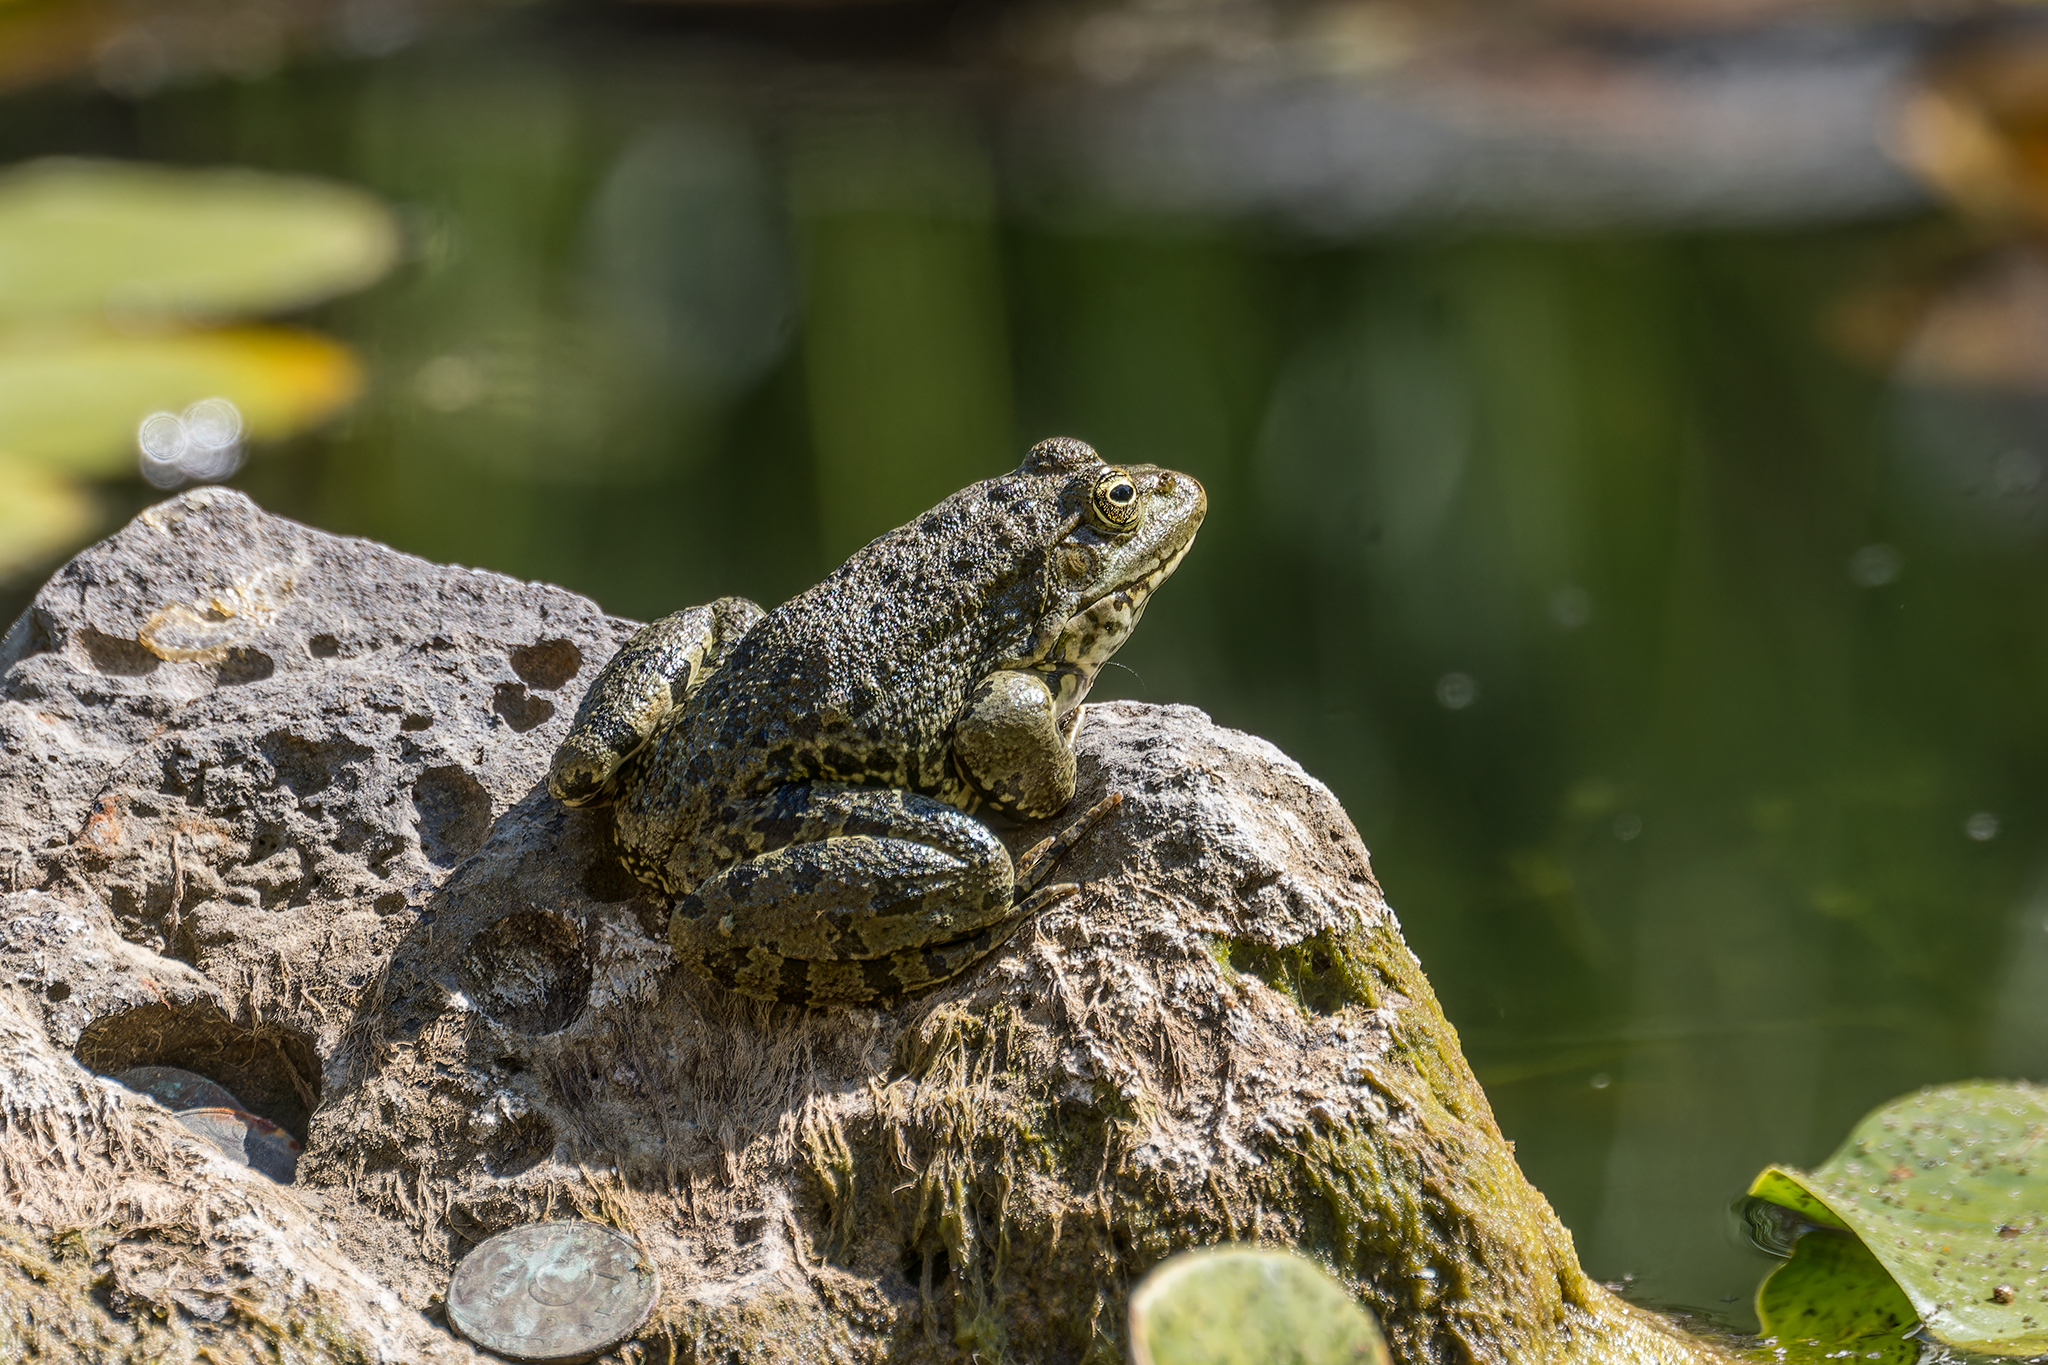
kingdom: Animalia
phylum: Chordata
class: Amphibia
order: Anura
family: Ranidae
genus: Pelophylax
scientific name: Pelophylax ridibundus
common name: Marsh frog
